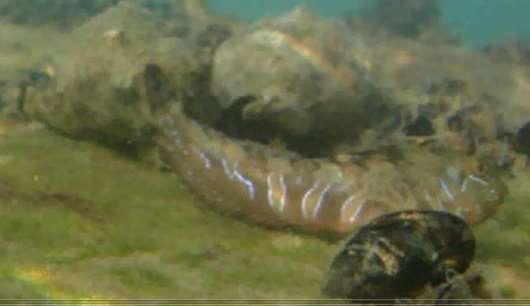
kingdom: Animalia
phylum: Chordata
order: Perciformes
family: Blenniidae
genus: Aidablennius
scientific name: Aidablennius sphynx
